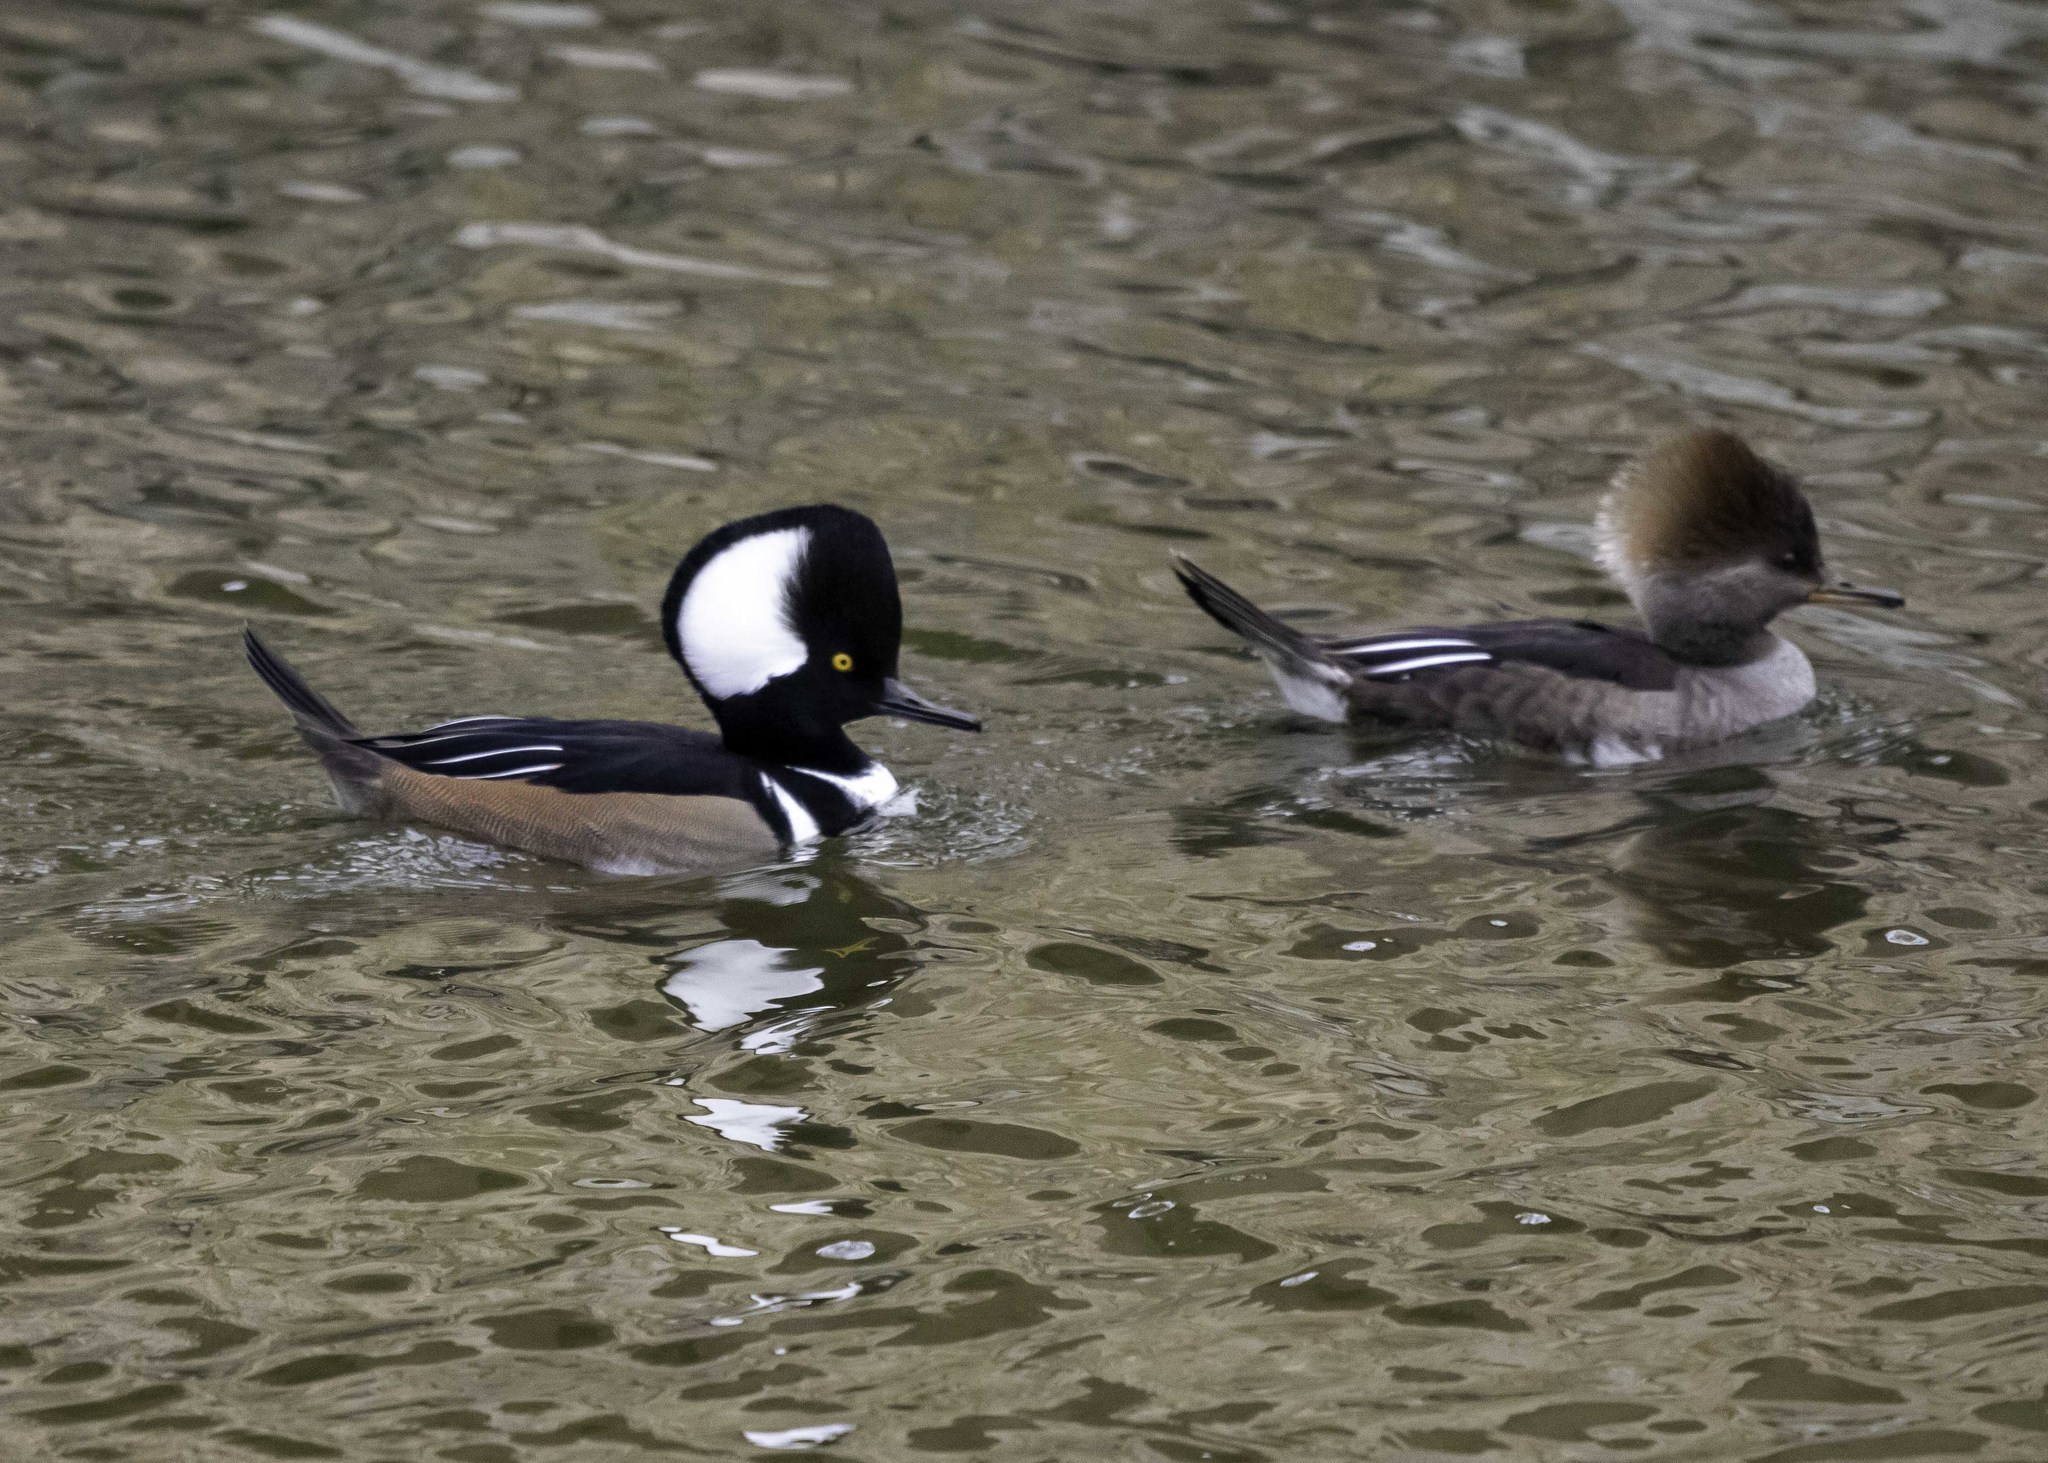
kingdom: Animalia
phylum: Chordata
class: Aves
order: Anseriformes
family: Anatidae
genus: Lophodytes
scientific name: Lophodytes cucullatus
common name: Hooded merganser
